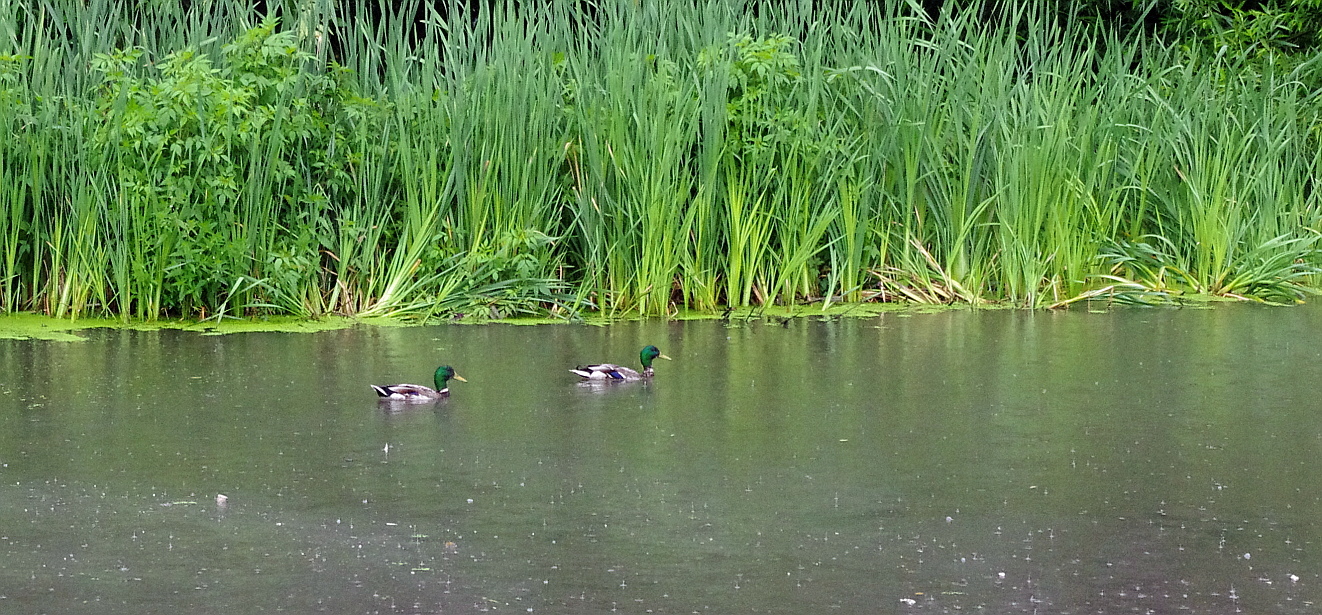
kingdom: Animalia
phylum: Chordata
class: Aves
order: Anseriformes
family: Anatidae
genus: Anas
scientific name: Anas platyrhynchos
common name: Mallard
